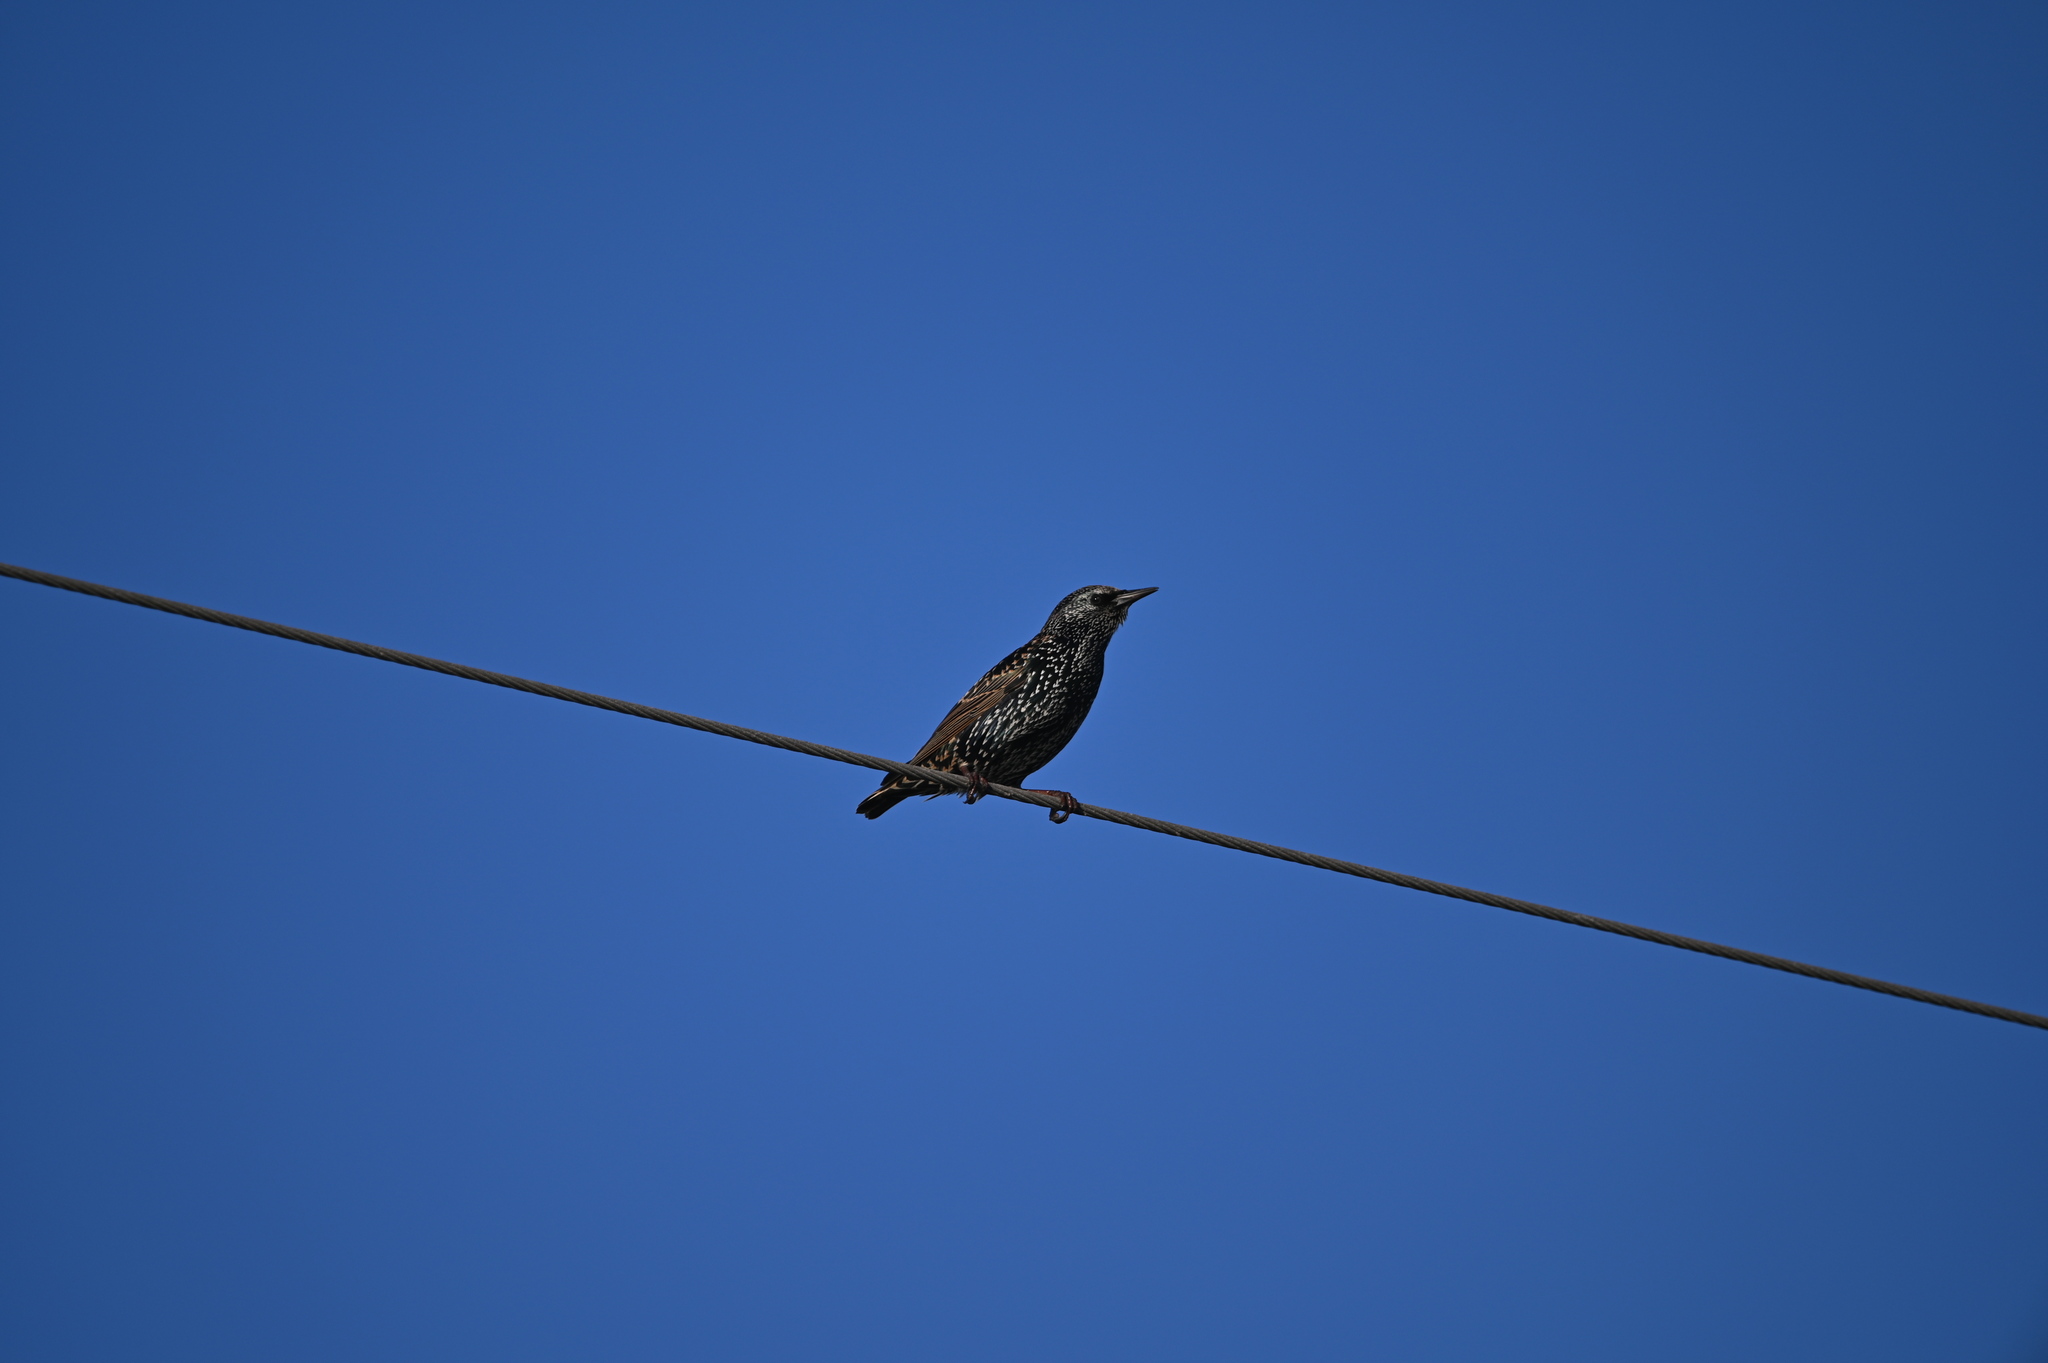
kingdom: Animalia
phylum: Chordata
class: Aves
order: Passeriformes
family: Sturnidae
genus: Sturnus
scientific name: Sturnus vulgaris
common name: Common starling
